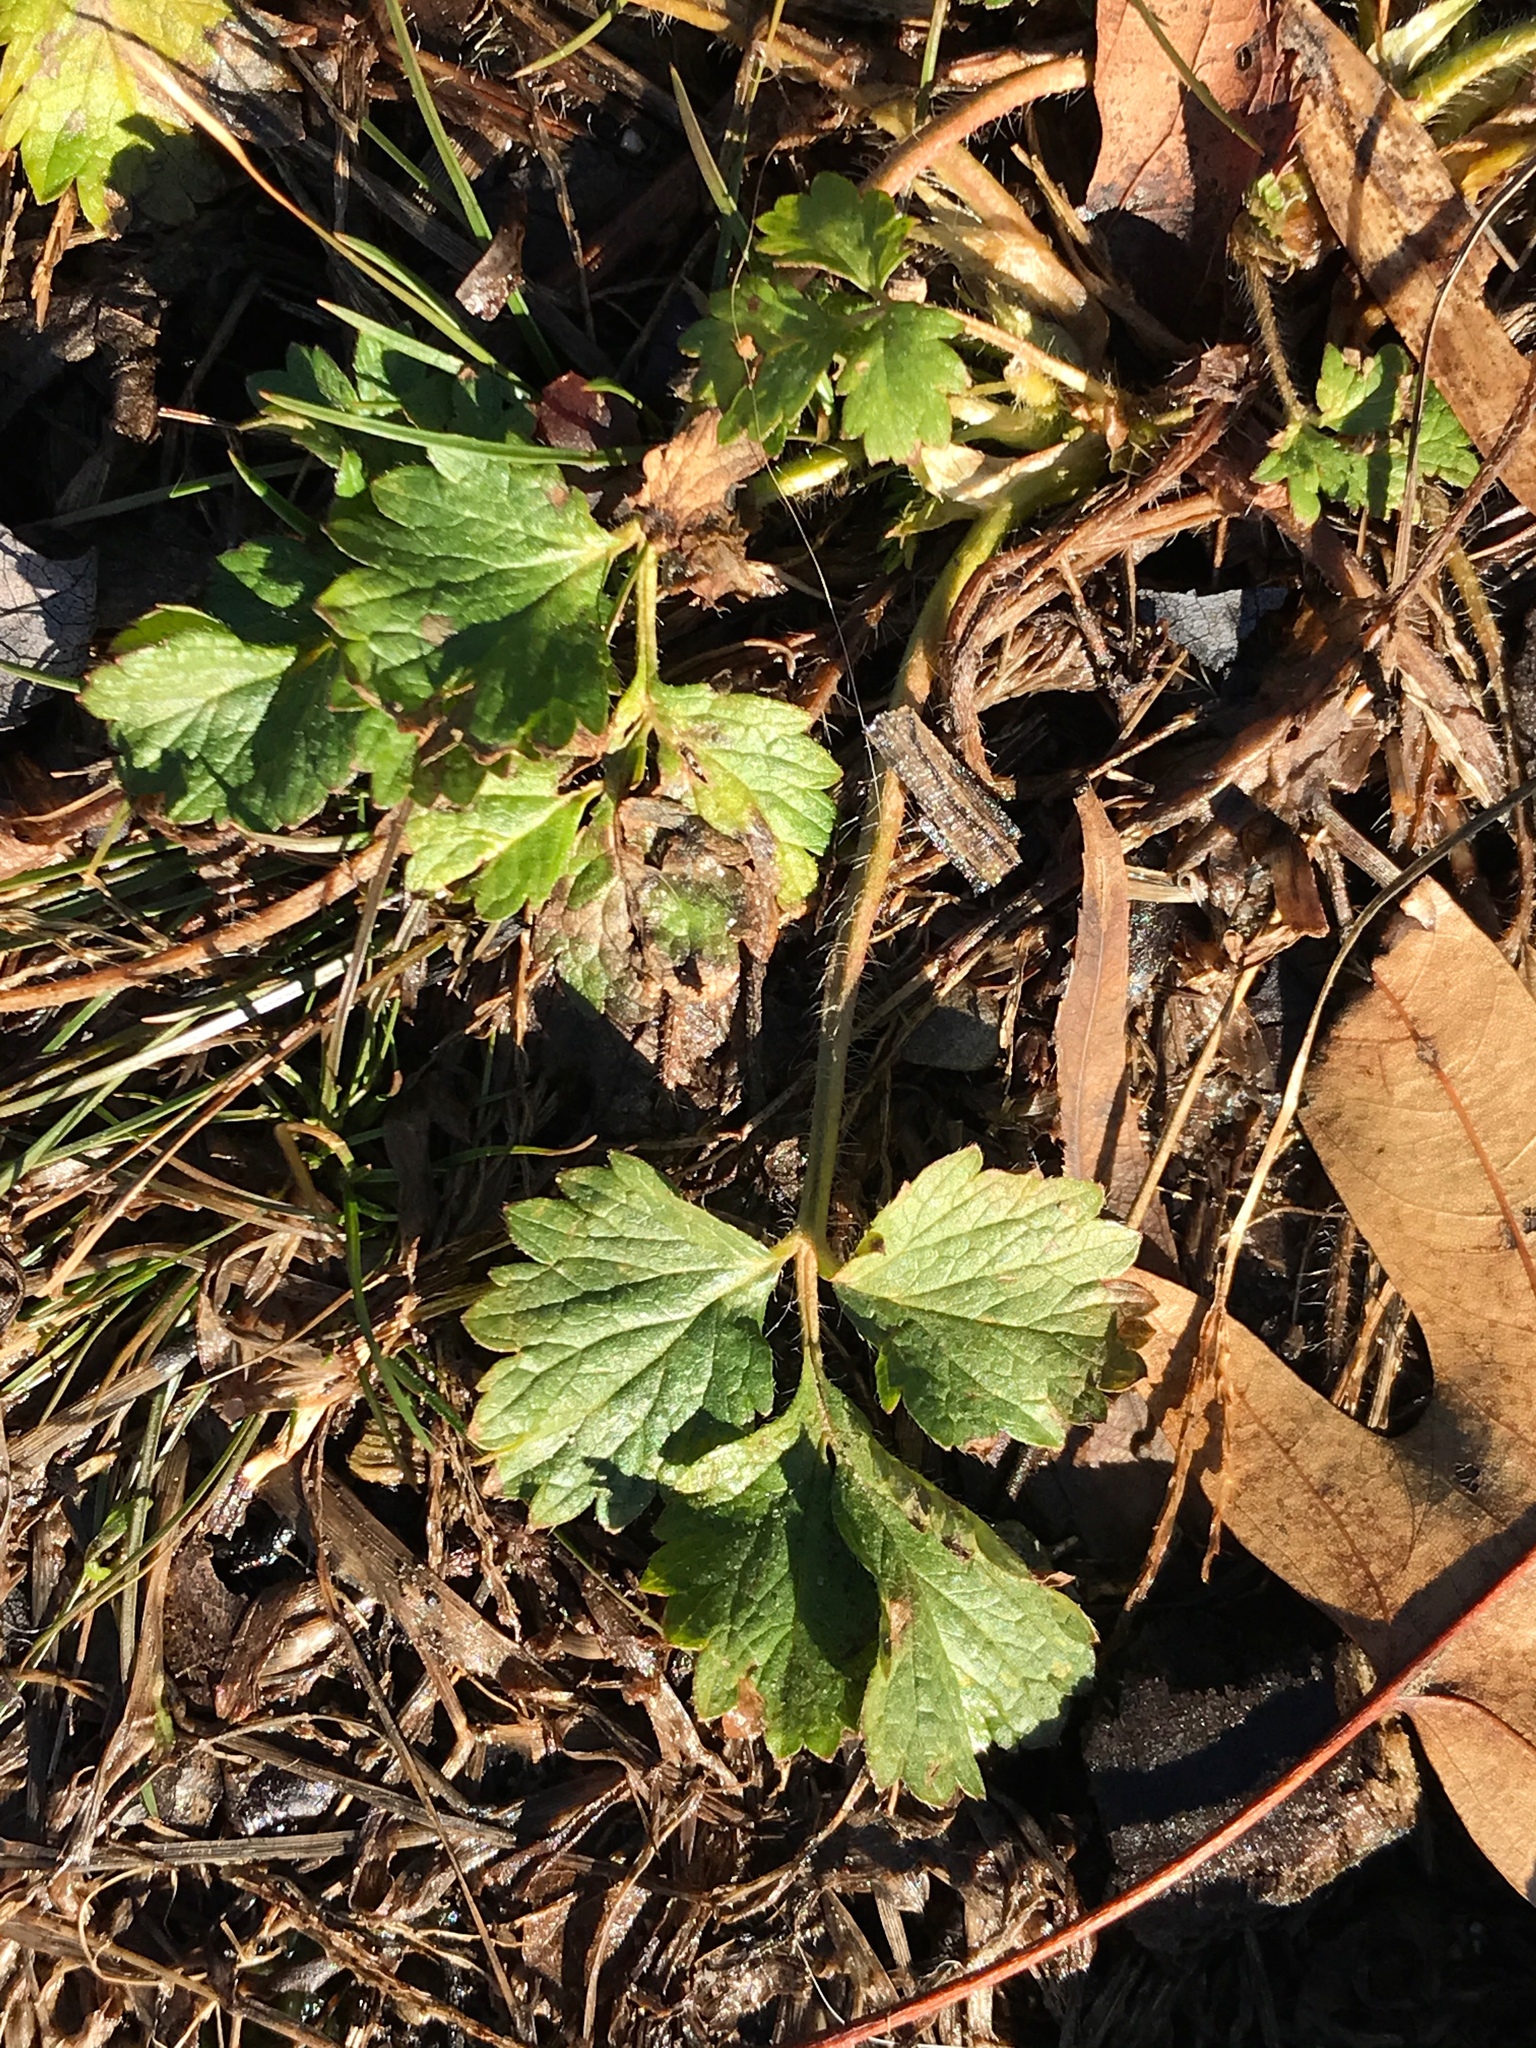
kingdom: Plantae
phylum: Tracheophyta
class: Magnoliopsida
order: Ranunculales
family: Ranunculaceae
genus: Ranunculus
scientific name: Ranunculus repens
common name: Creeping buttercup
